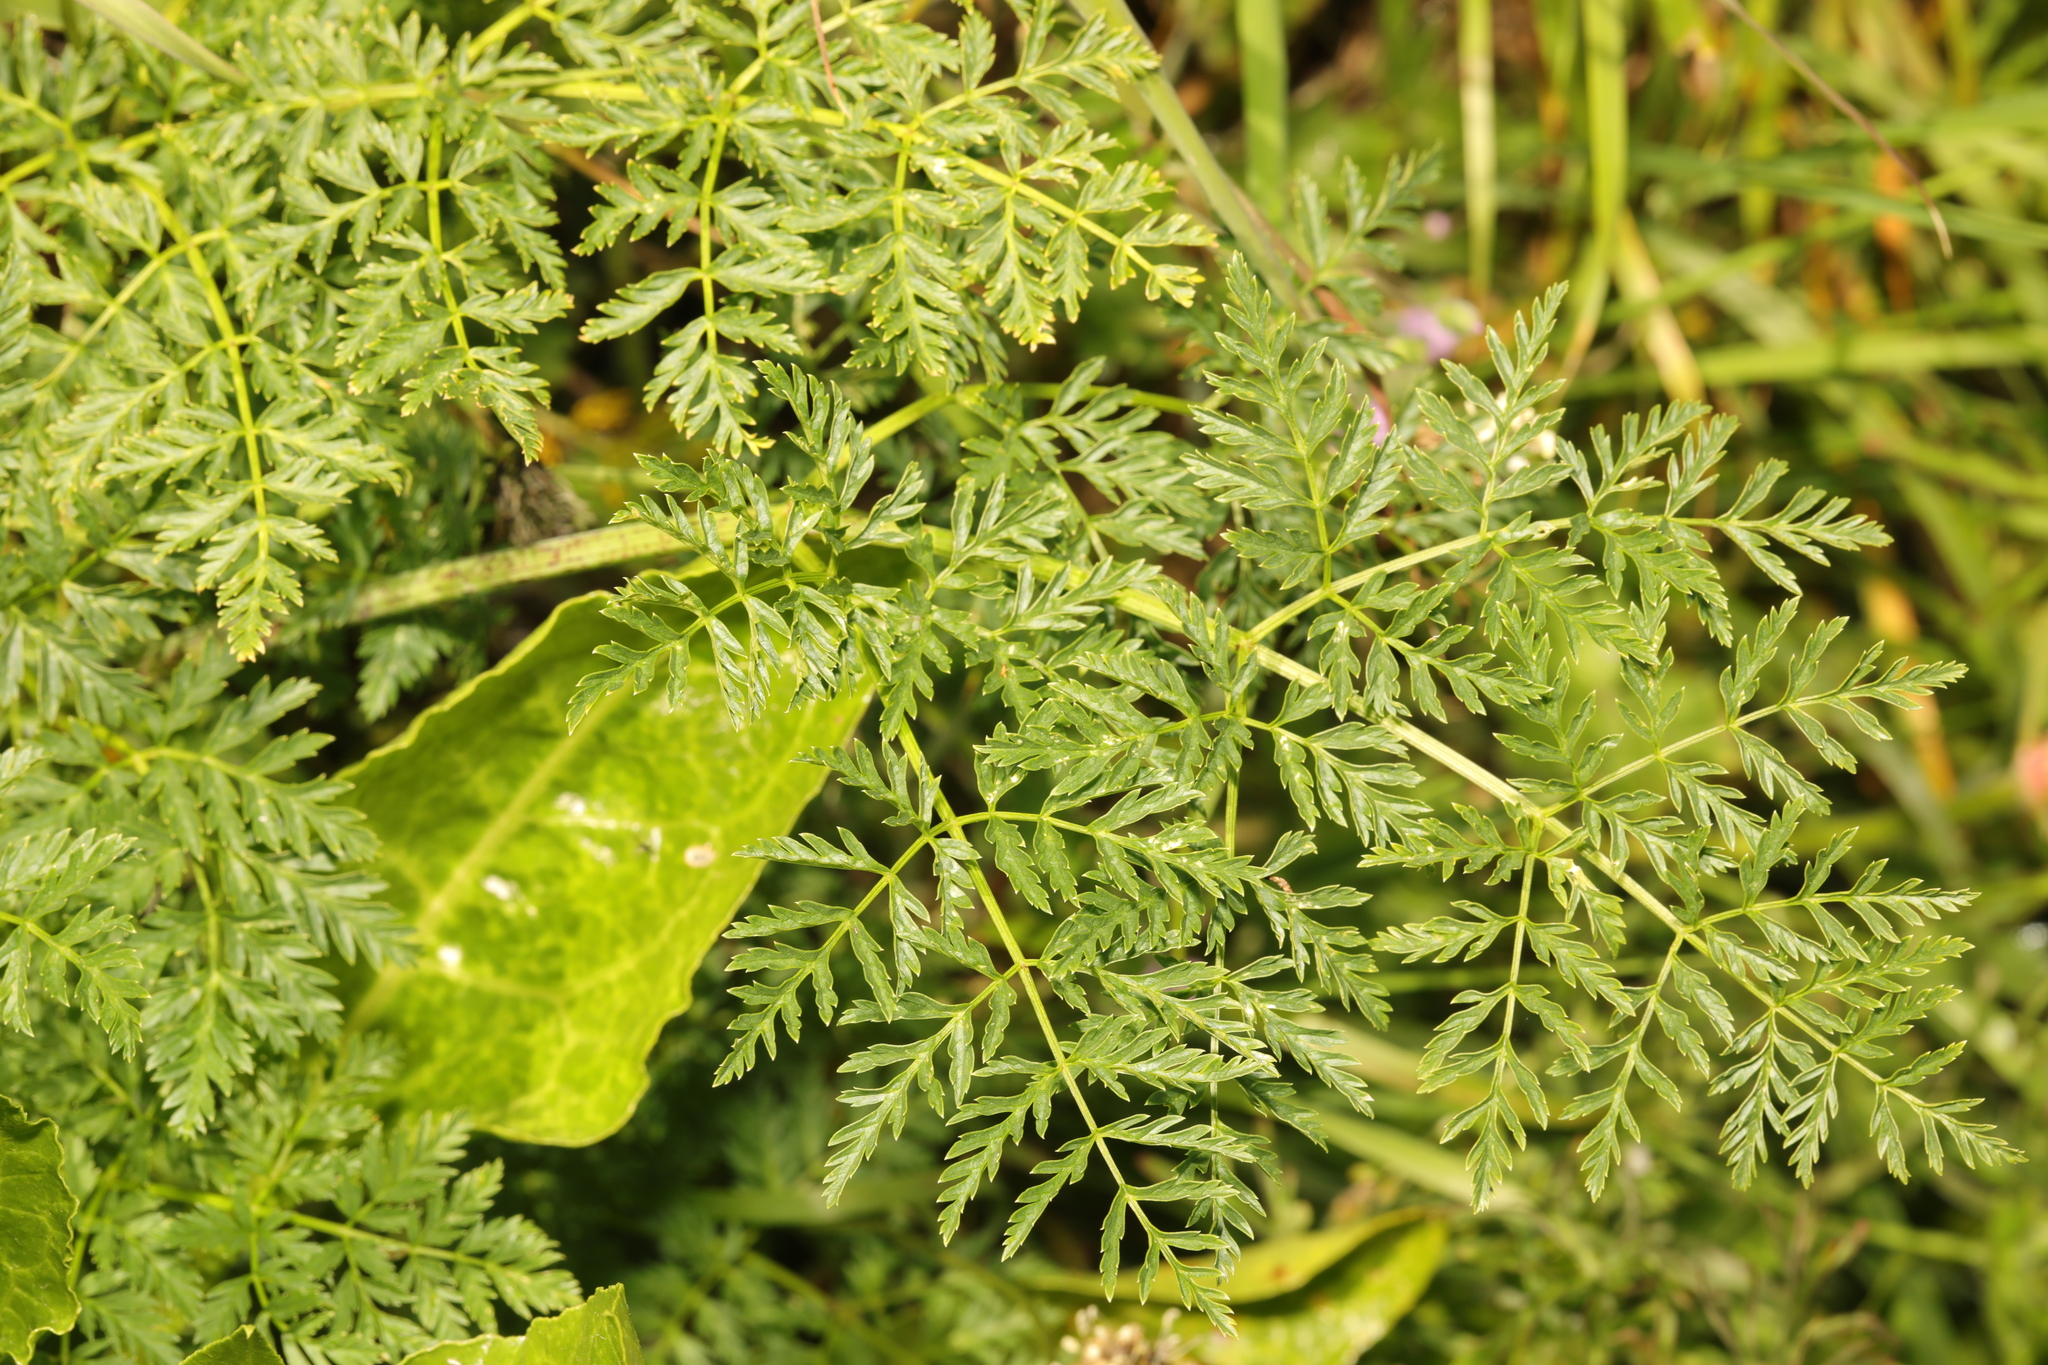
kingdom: Plantae
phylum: Tracheophyta
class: Magnoliopsida
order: Apiales
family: Apiaceae
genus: Conium
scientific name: Conium maculatum
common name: Hemlock
